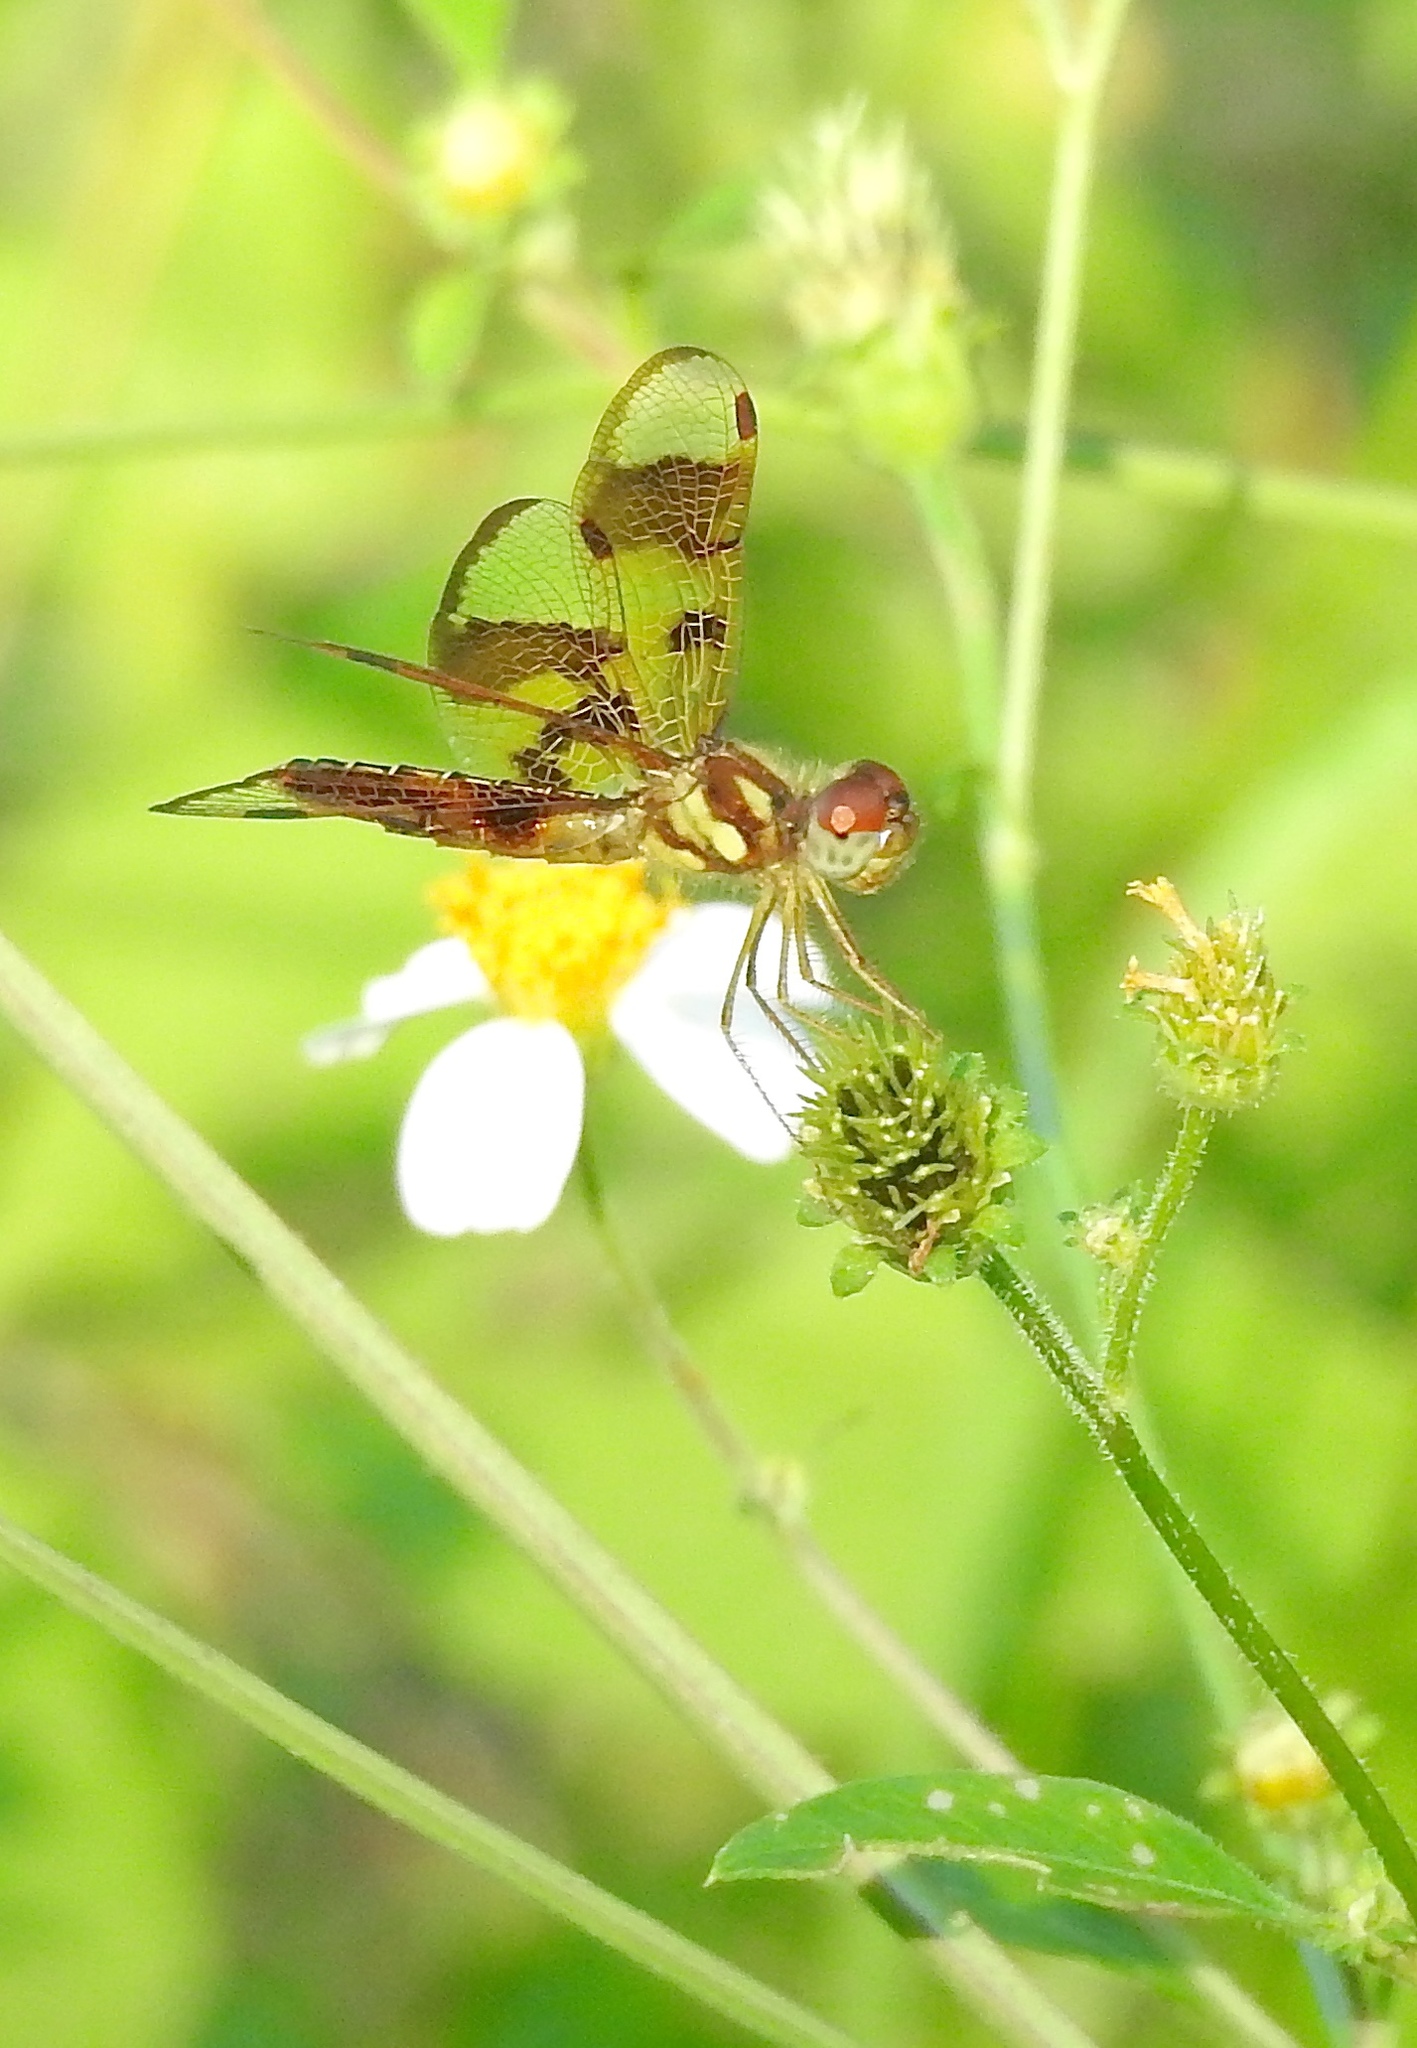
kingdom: Animalia
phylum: Arthropoda
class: Insecta
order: Odonata
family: Libellulidae
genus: Perithemis
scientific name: Perithemis tenera
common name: Eastern amberwing
